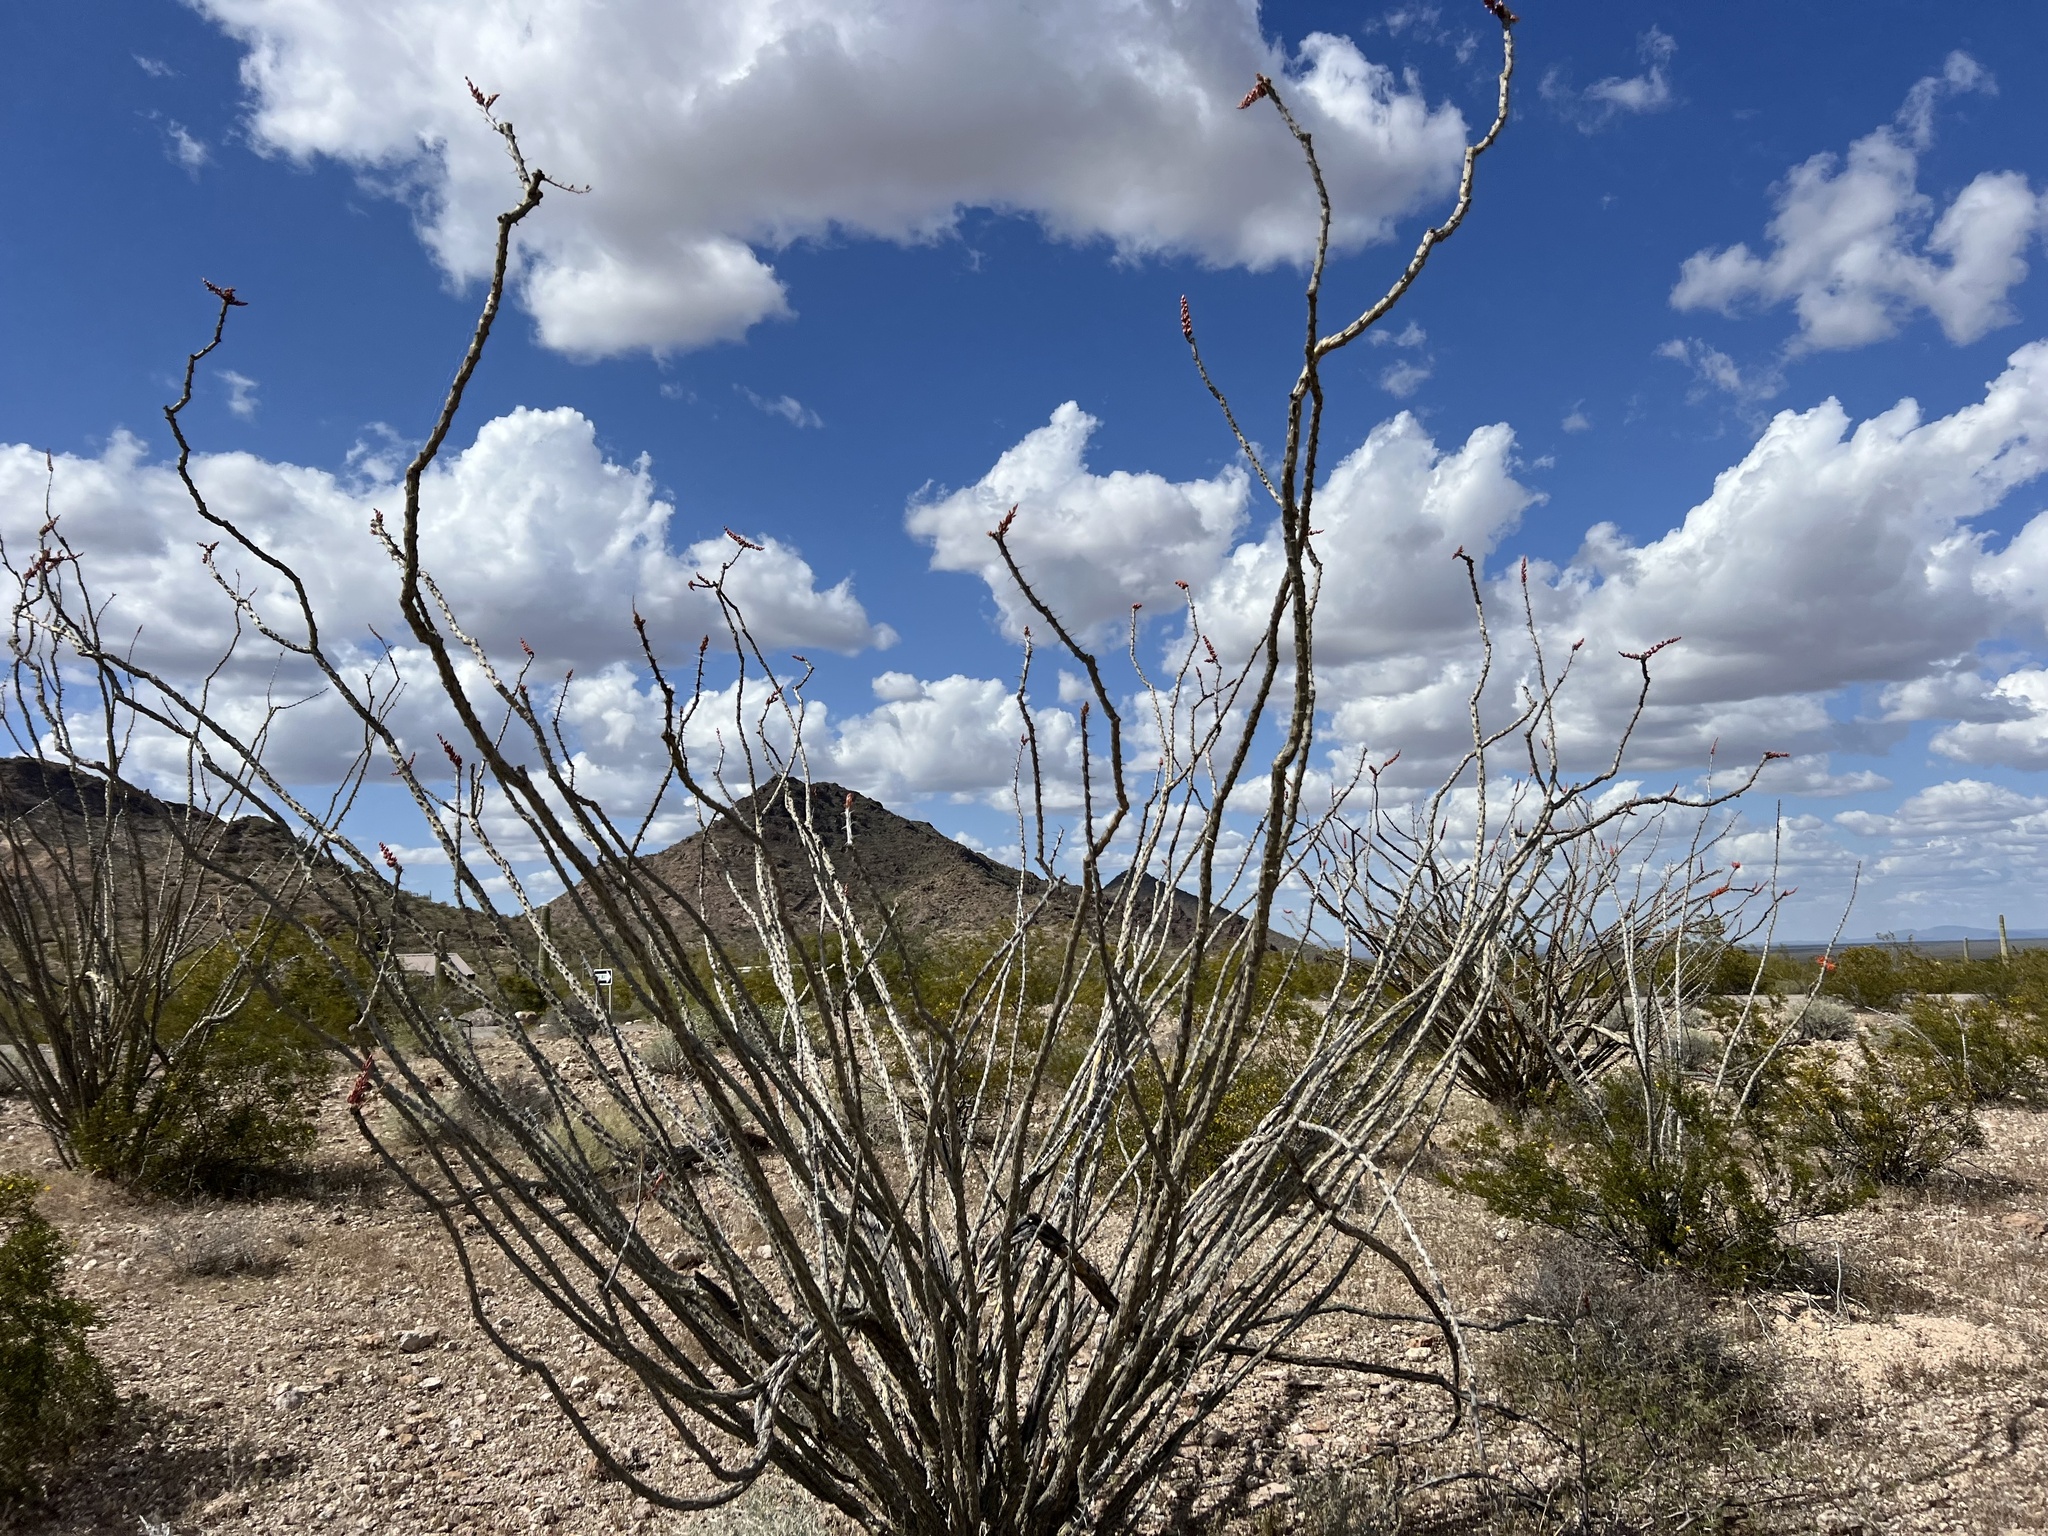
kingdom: Plantae
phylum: Tracheophyta
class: Magnoliopsida
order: Ericales
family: Fouquieriaceae
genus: Fouquieria
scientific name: Fouquieria splendens
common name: Vine-cactus
